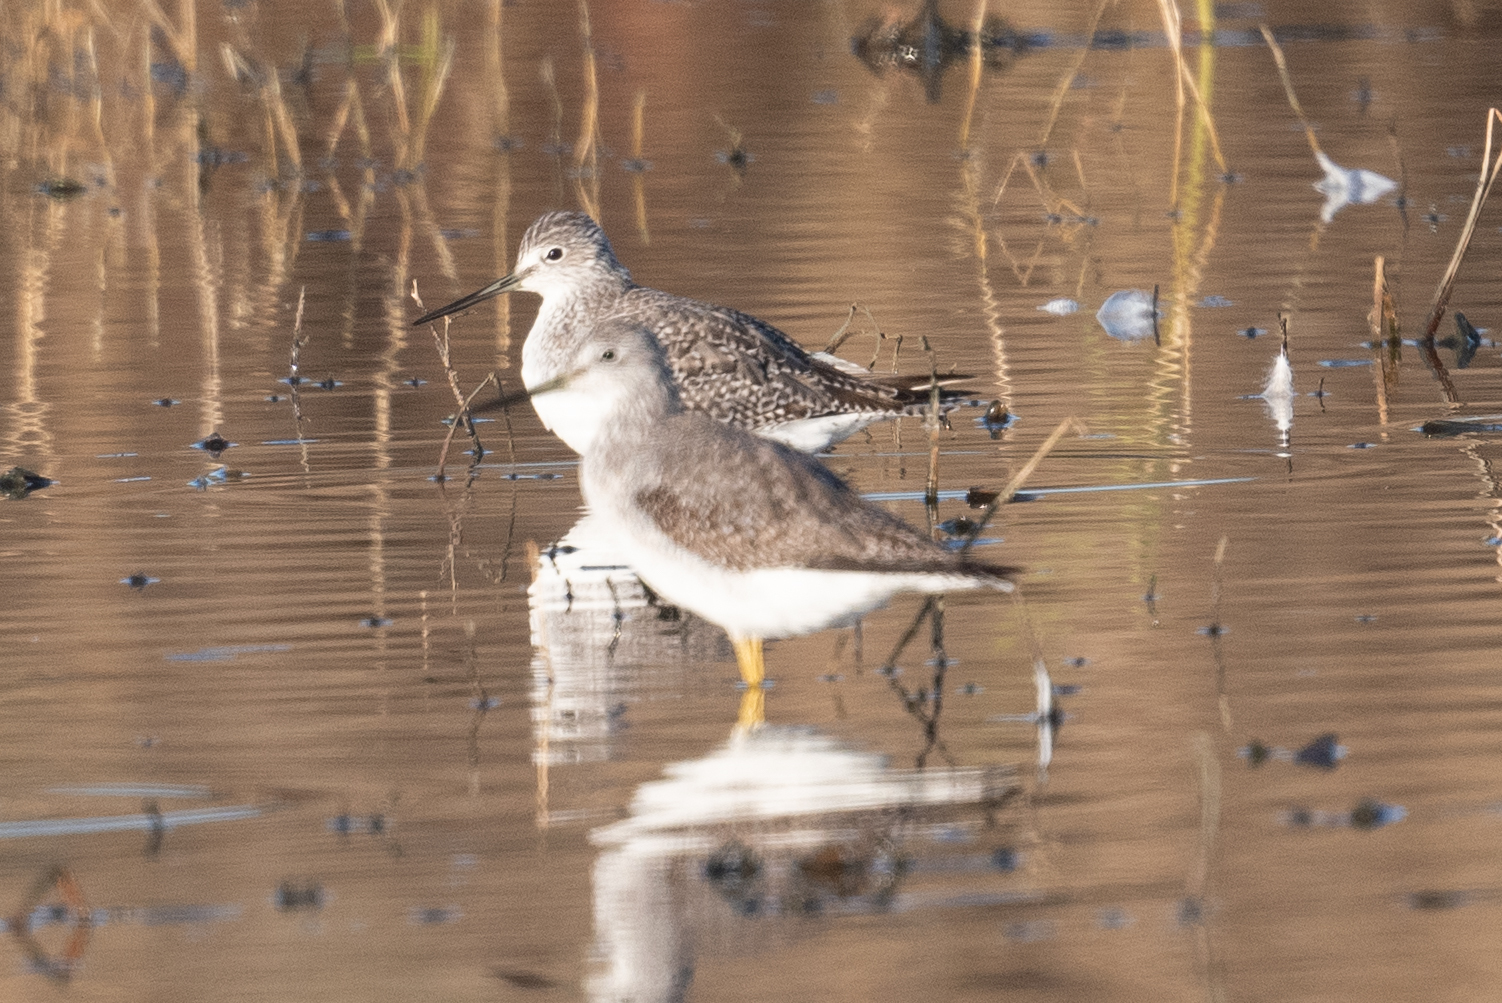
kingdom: Animalia
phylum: Chordata
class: Aves
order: Charadriiformes
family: Scolopacidae
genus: Tringa
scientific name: Tringa melanoleuca
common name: Greater yellowlegs
